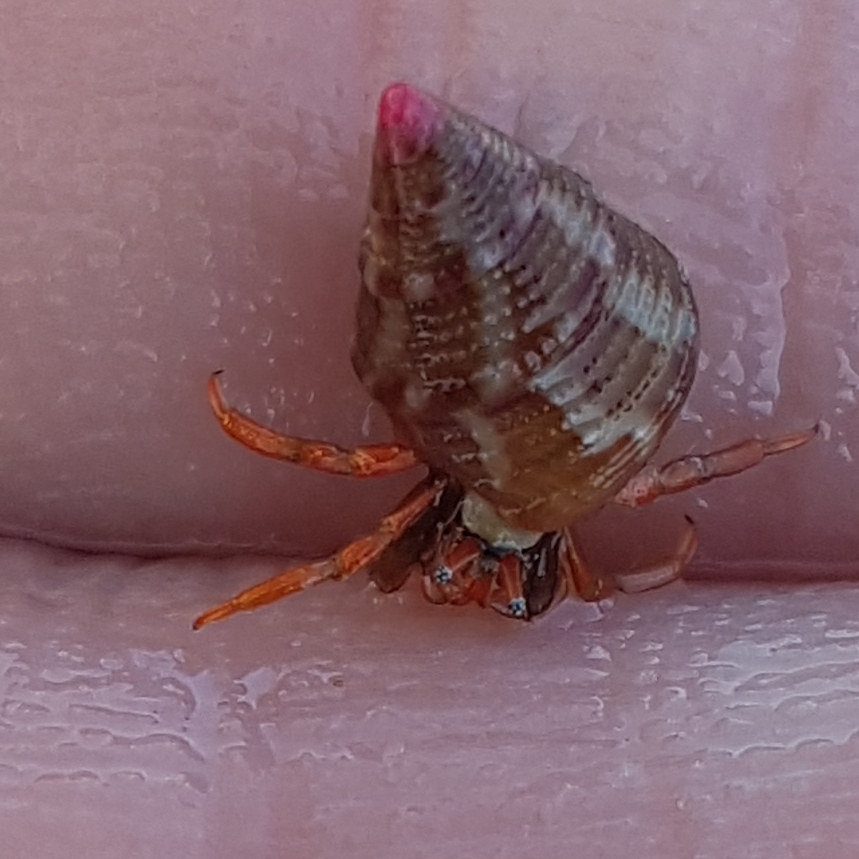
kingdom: Animalia
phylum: Arthropoda
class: Malacostraca
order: Decapoda
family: Diogenidae
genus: Clibanarius
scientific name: Clibanarius erythropus
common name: Hermit crab
